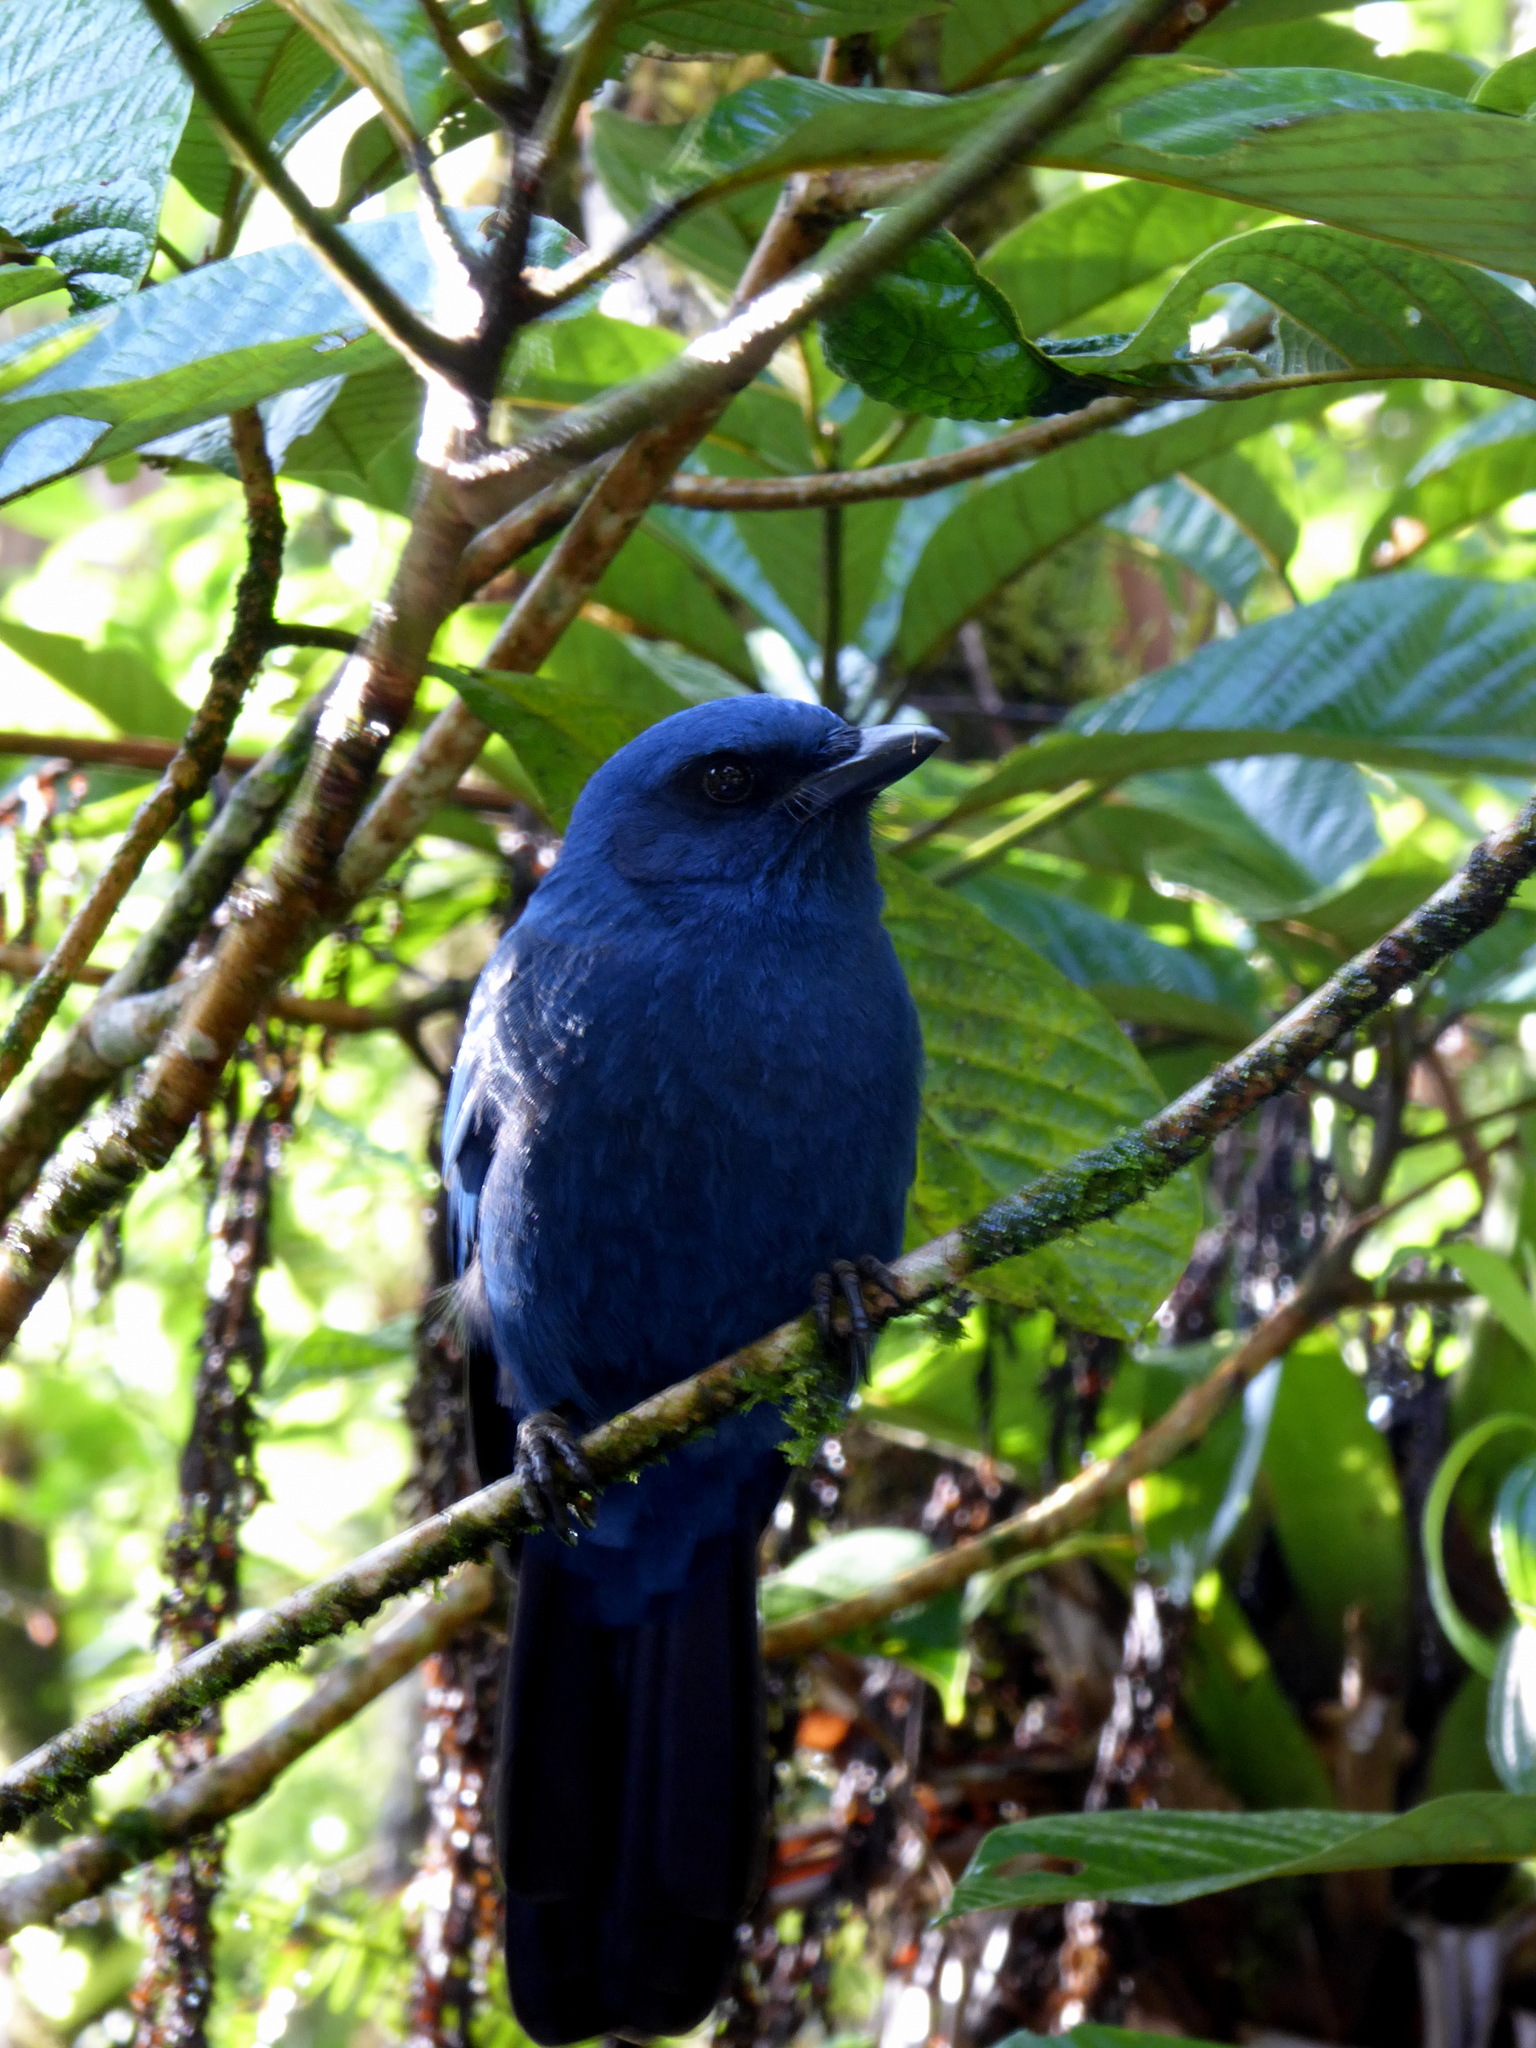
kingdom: Animalia
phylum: Chordata
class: Aves
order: Passeriformes
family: Corvidae
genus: Aphelocoma
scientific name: Aphelocoma unicolor
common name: Unicolored jay
